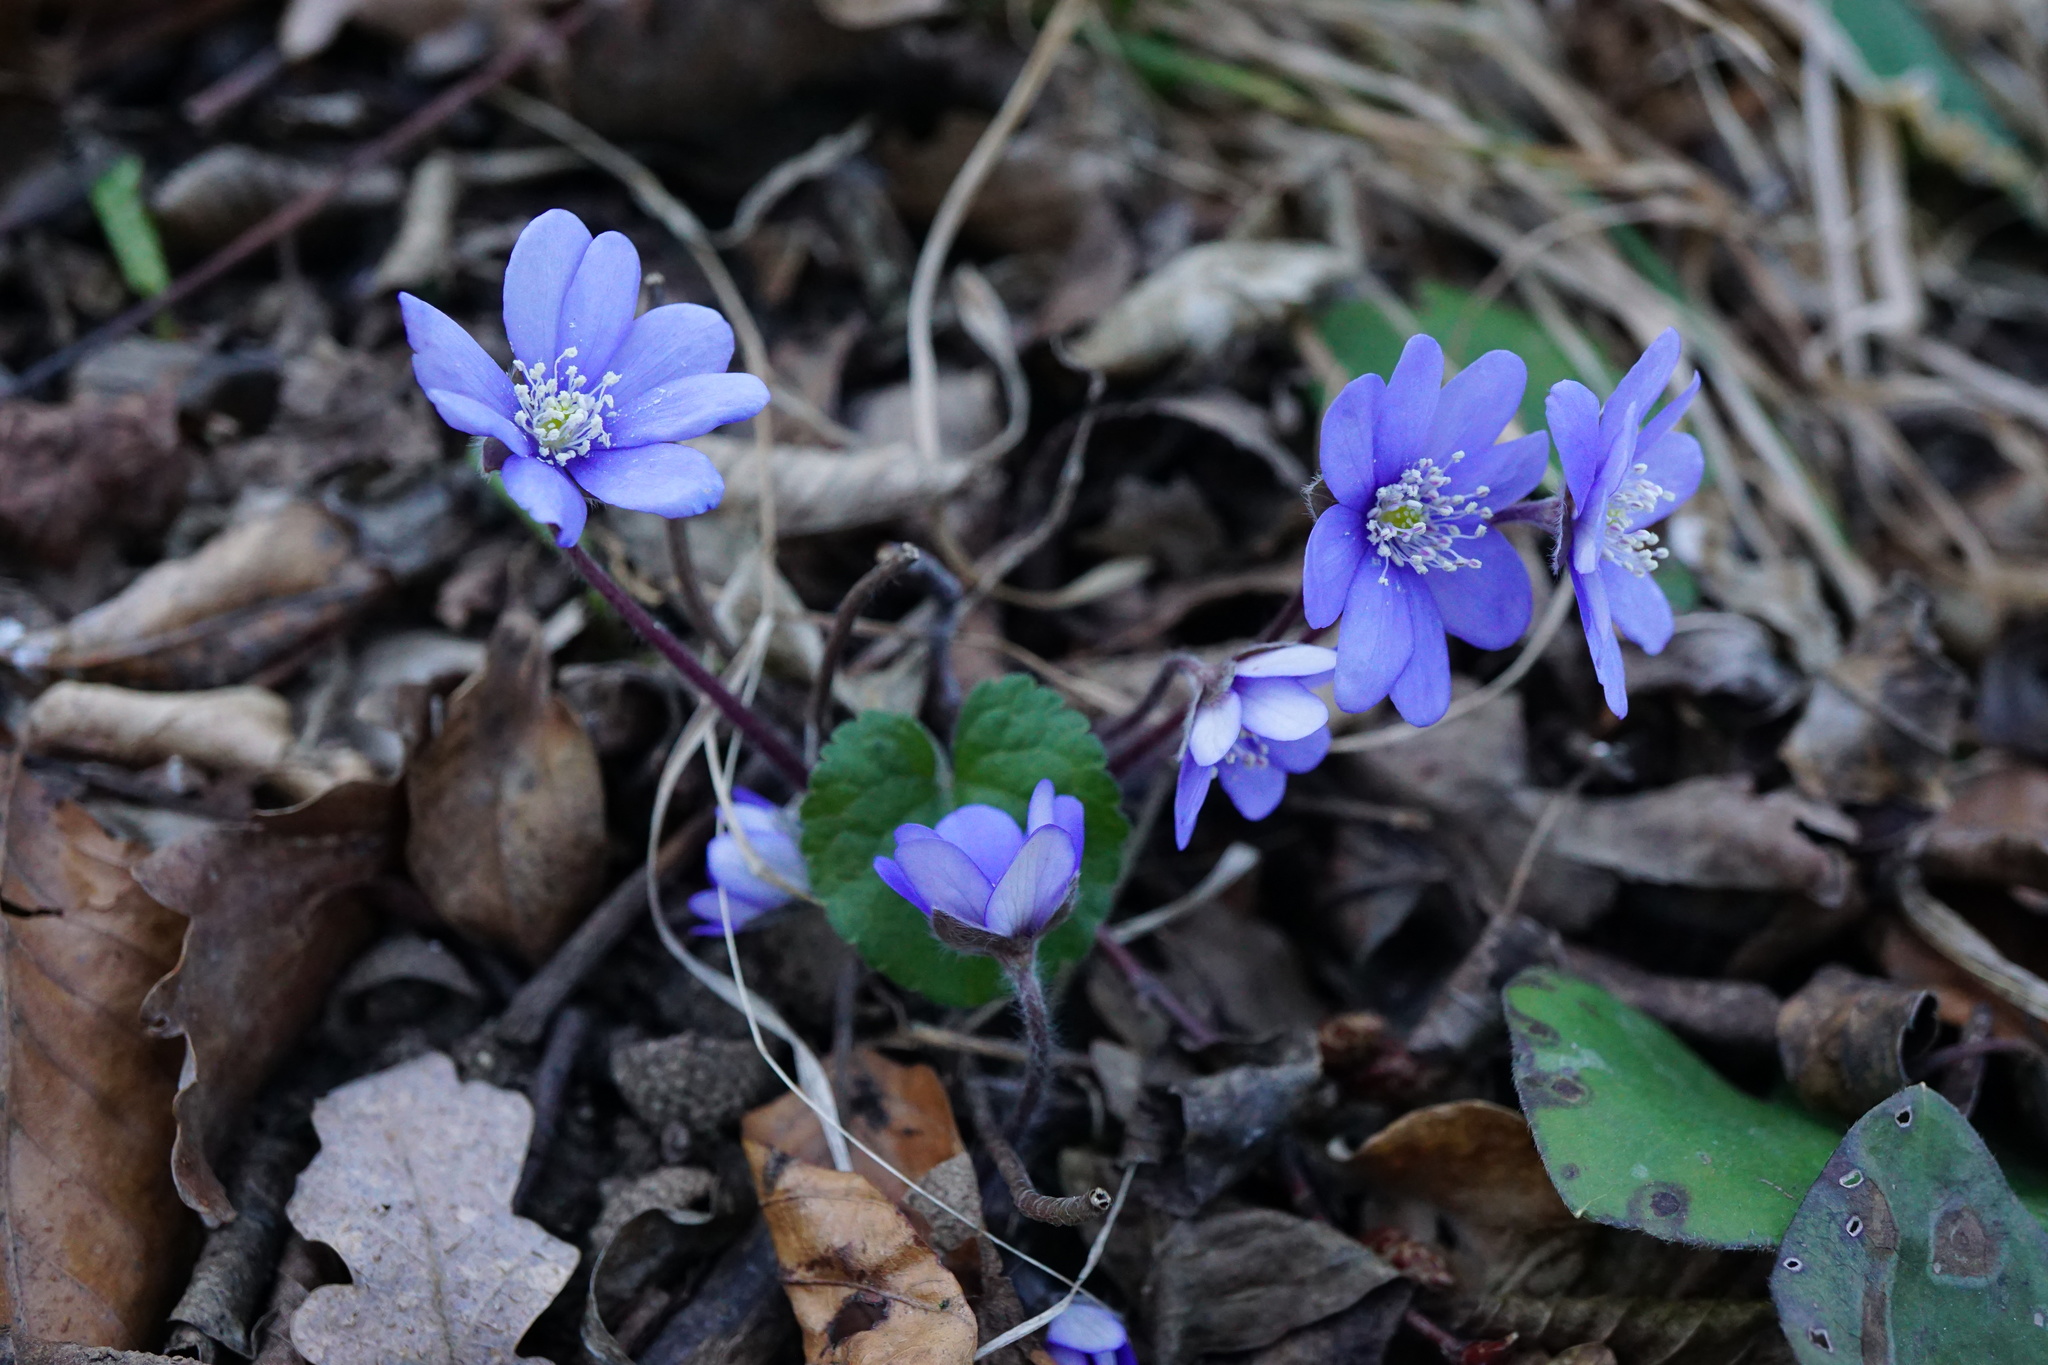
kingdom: Plantae
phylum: Tracheophyta
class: Magnoliopsida
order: Ranunculales
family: Ranunculaceae
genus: Hepatica
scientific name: Hepatica nobilis
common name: Liverleaf
